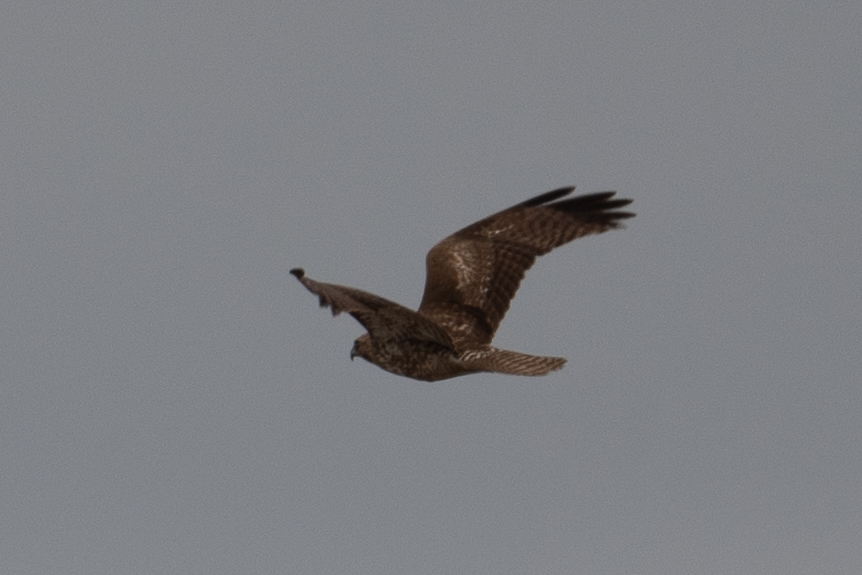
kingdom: Animalia
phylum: Chordata
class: Aves
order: Accipitriformes
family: Accipitridae
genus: Buteo
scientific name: Buteo jamaicensis
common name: Red-tailed hawk
